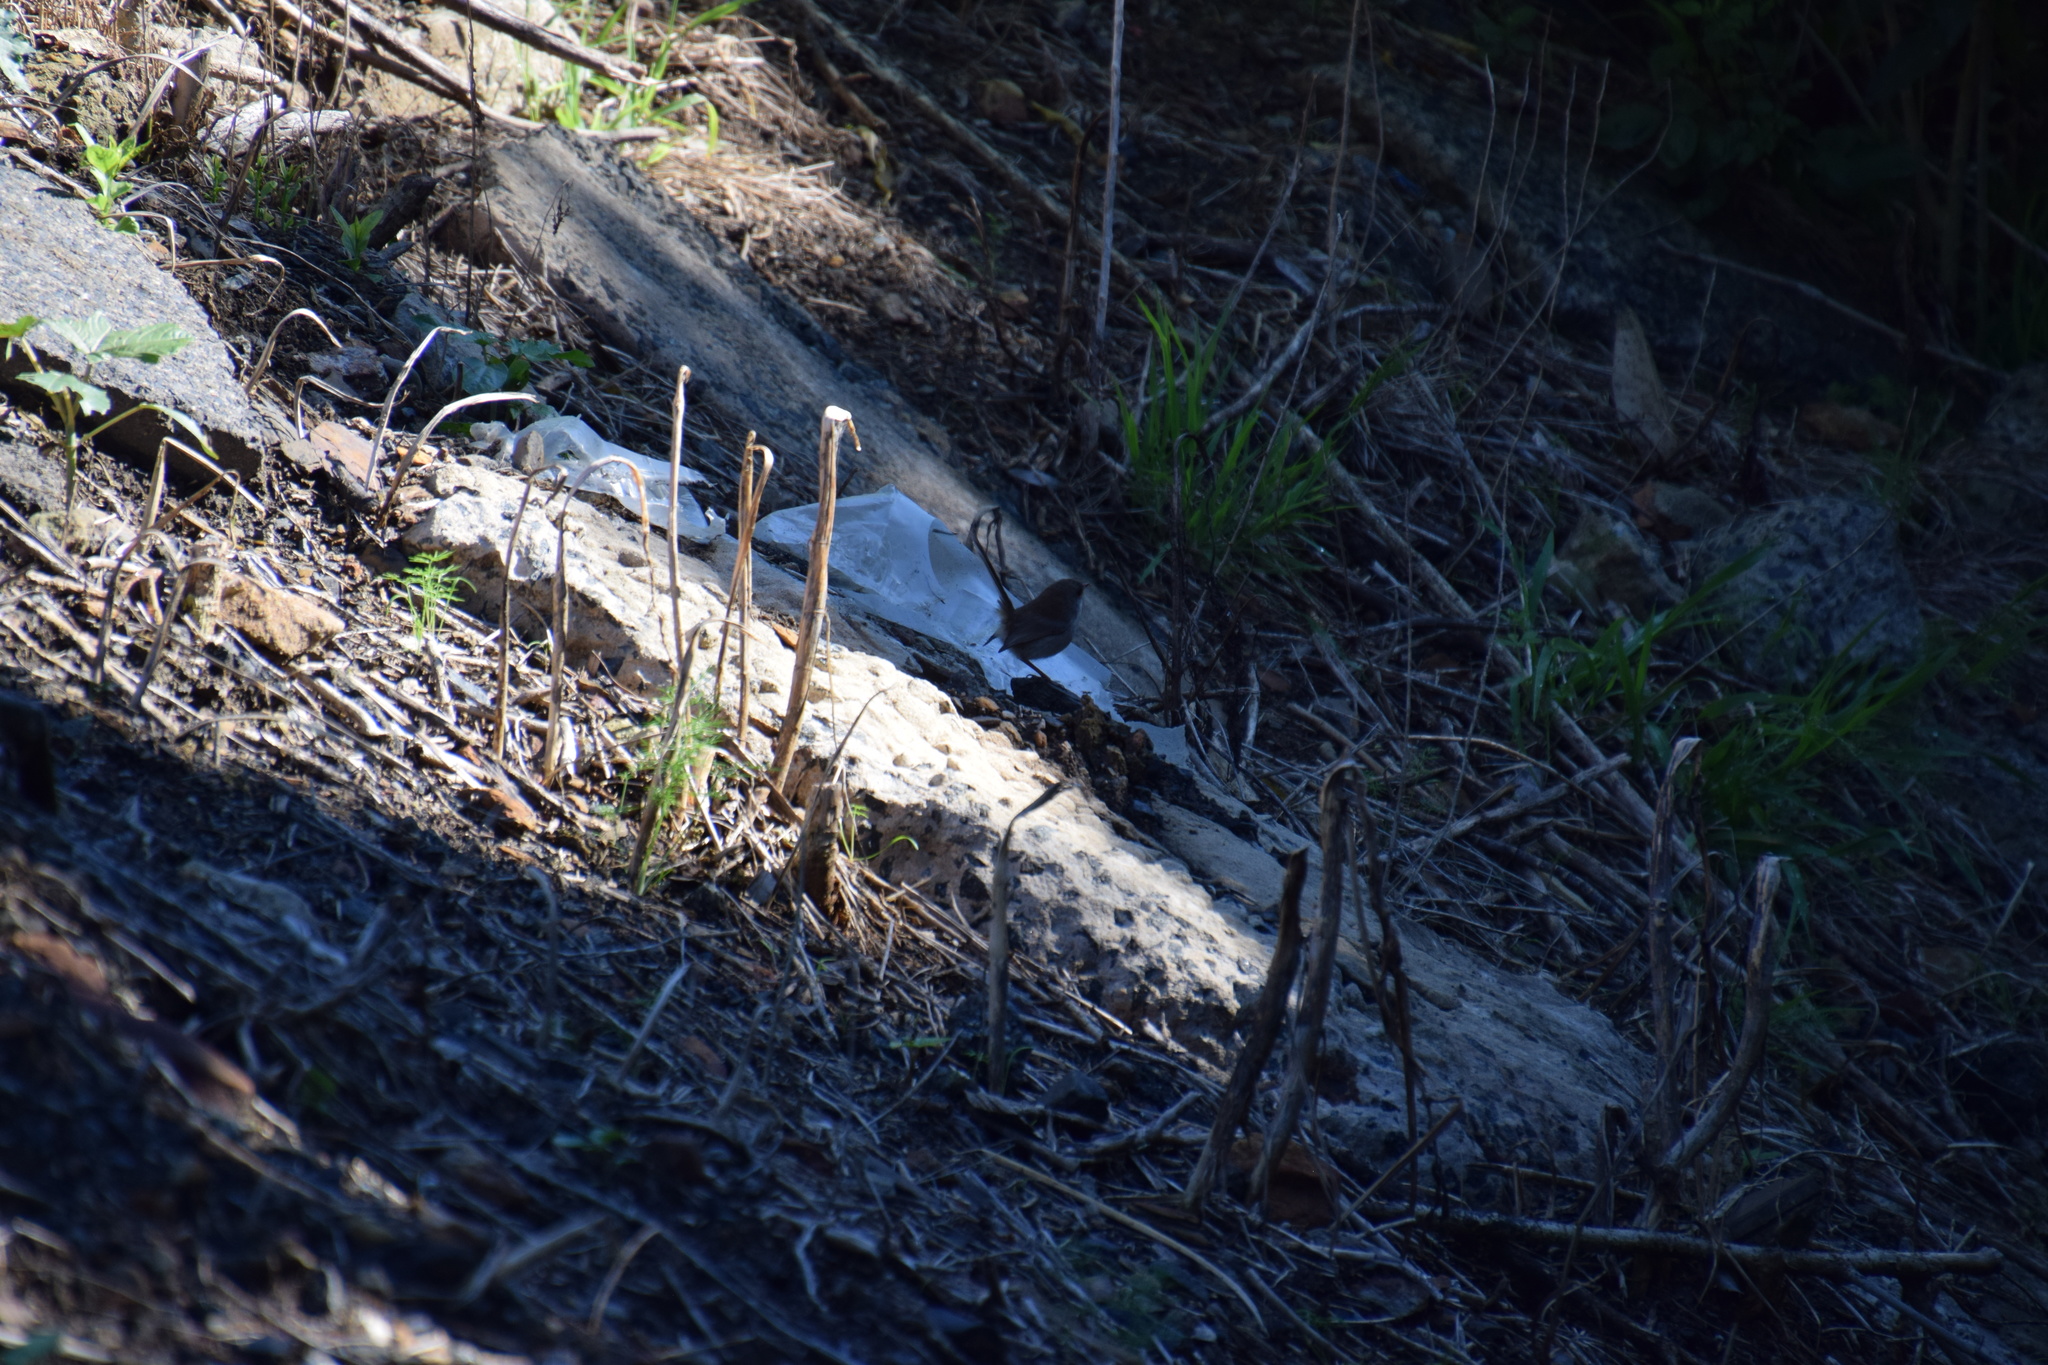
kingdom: Animalia
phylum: Chordata
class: Aves
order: Passeriformes
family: Maluridae
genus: Malurus
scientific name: Malurus cyaneus
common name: Superb fairywren
